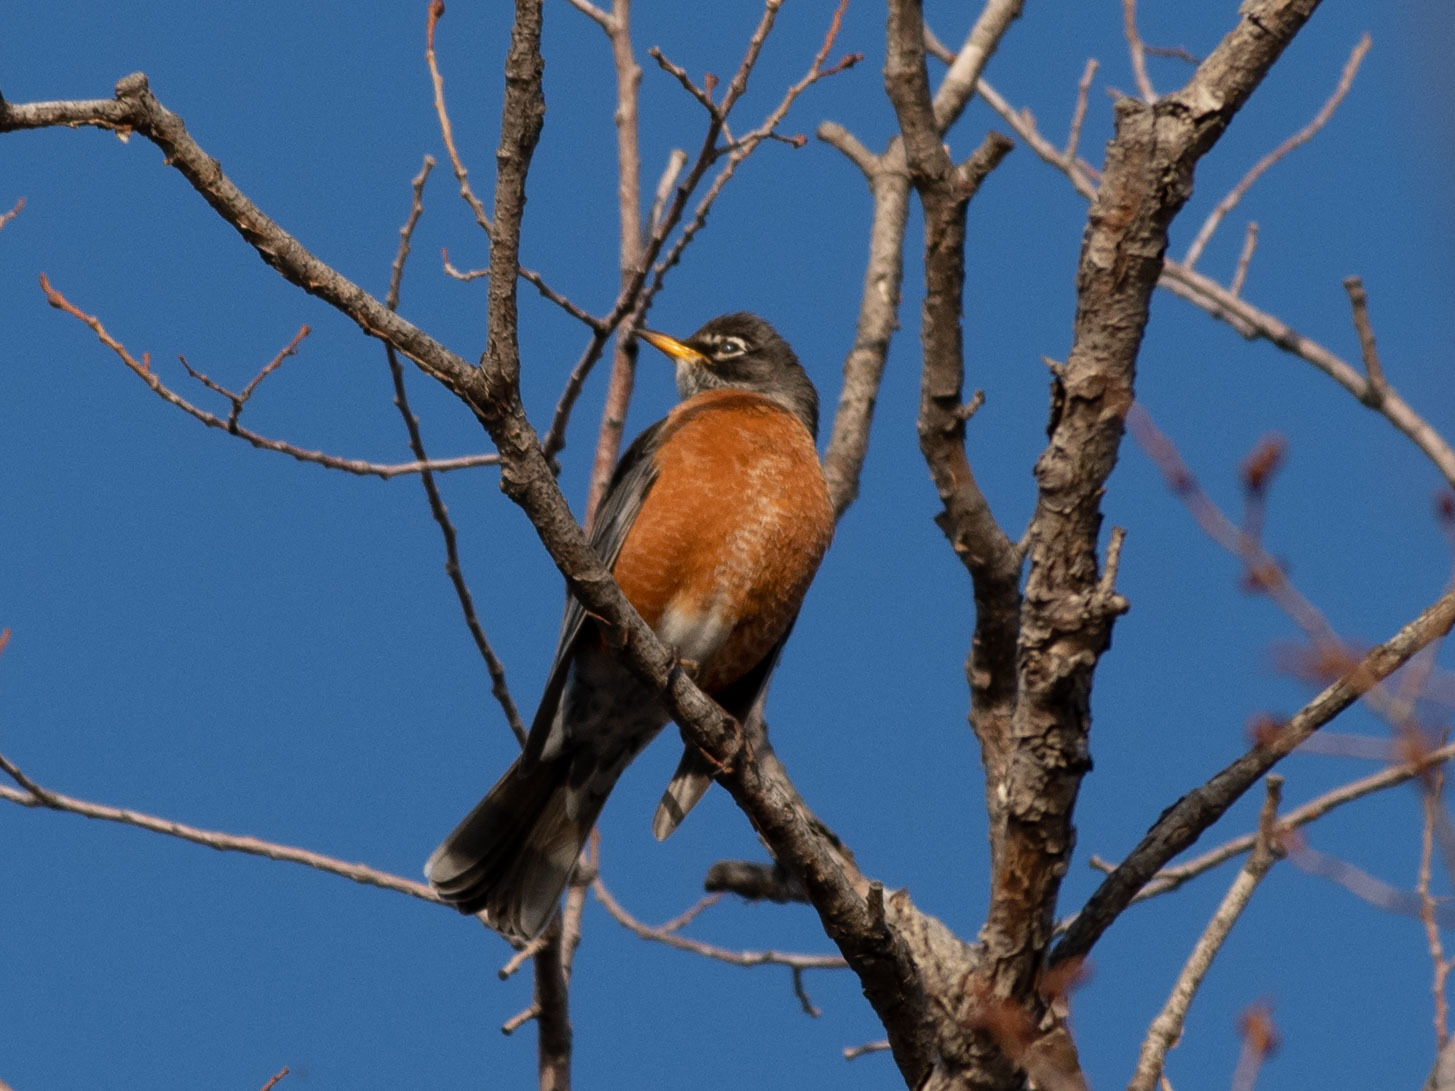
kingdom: Animalia
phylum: Chordata
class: Aves
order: Passeriformes
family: Turdidae
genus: Turdus
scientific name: Turdus migratorius
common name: American robin
